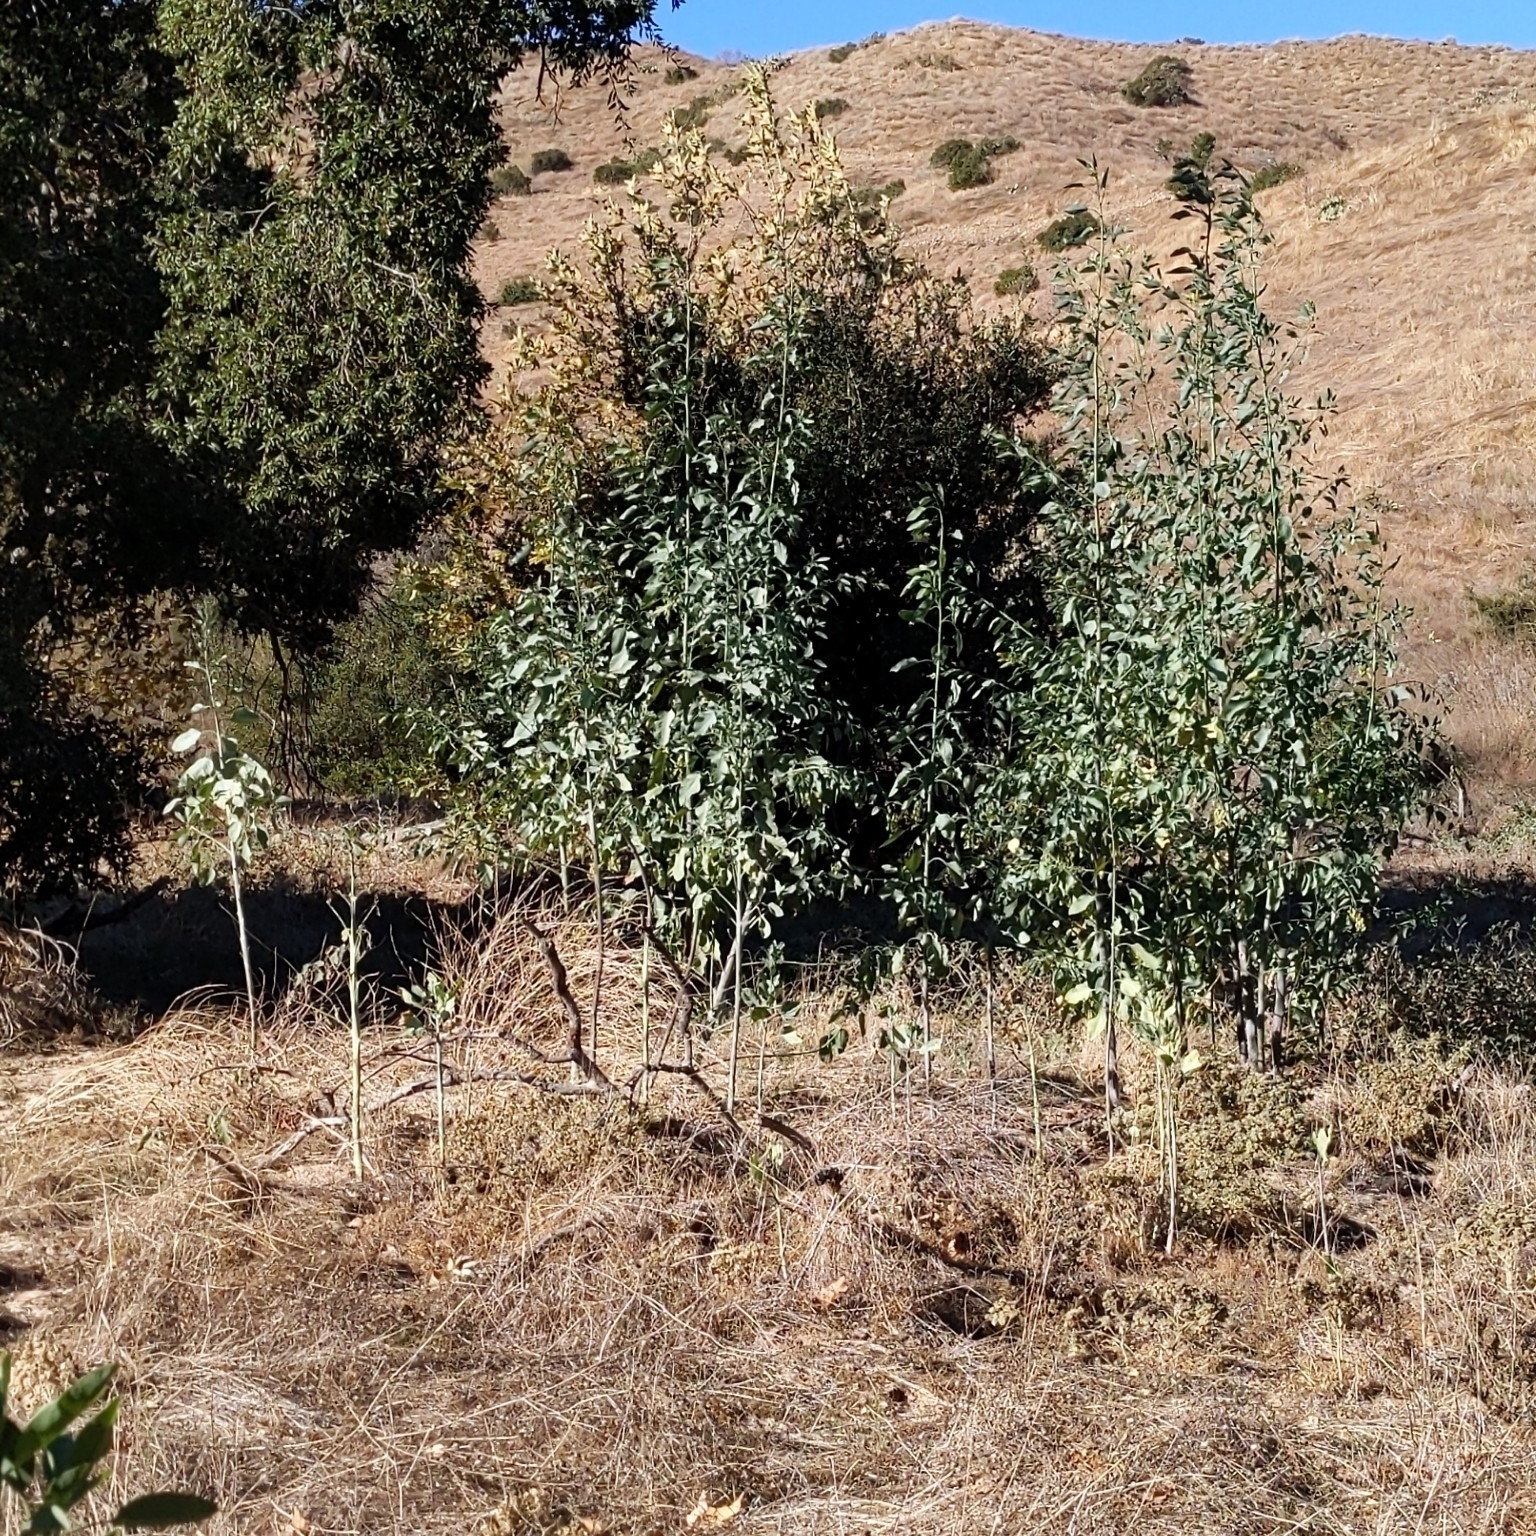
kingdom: Plantae
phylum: Tracheophyta
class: Magnoliopsida
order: Solanales
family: Solanaceae
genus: Nicotiana
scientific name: Nicotiana glauca
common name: Tree tobacco
